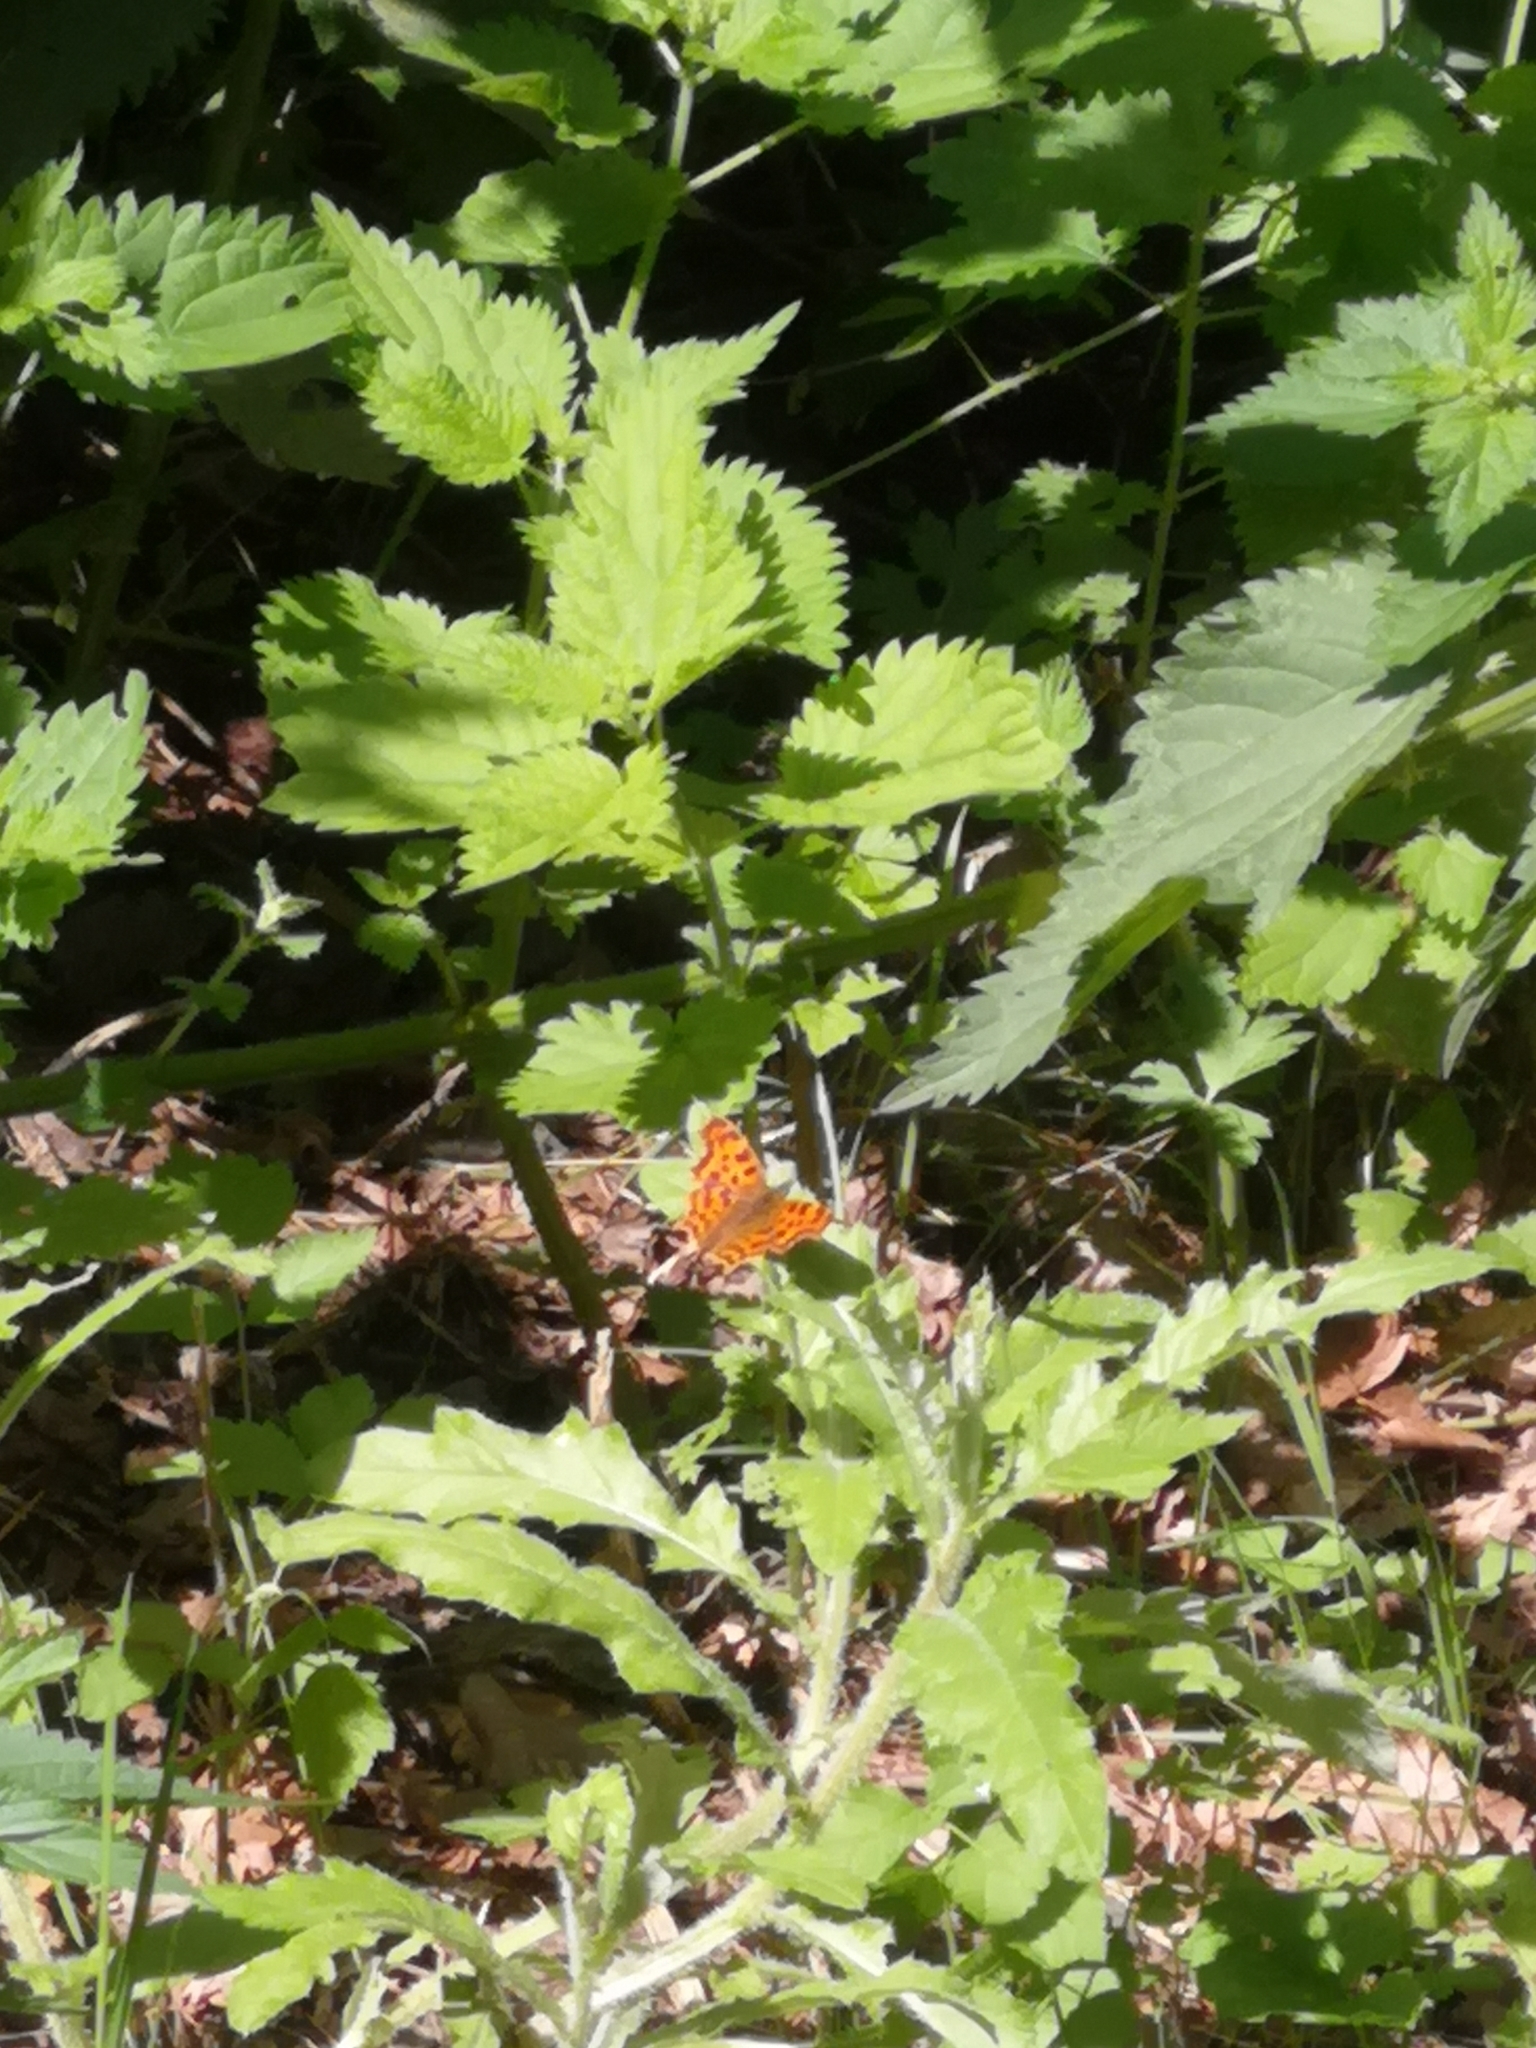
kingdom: Animalia
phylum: Arthropoda
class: Insecta
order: Lepidoptera
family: Nymphalidae
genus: Polygonia
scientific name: Polygonia c-album
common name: Comma
